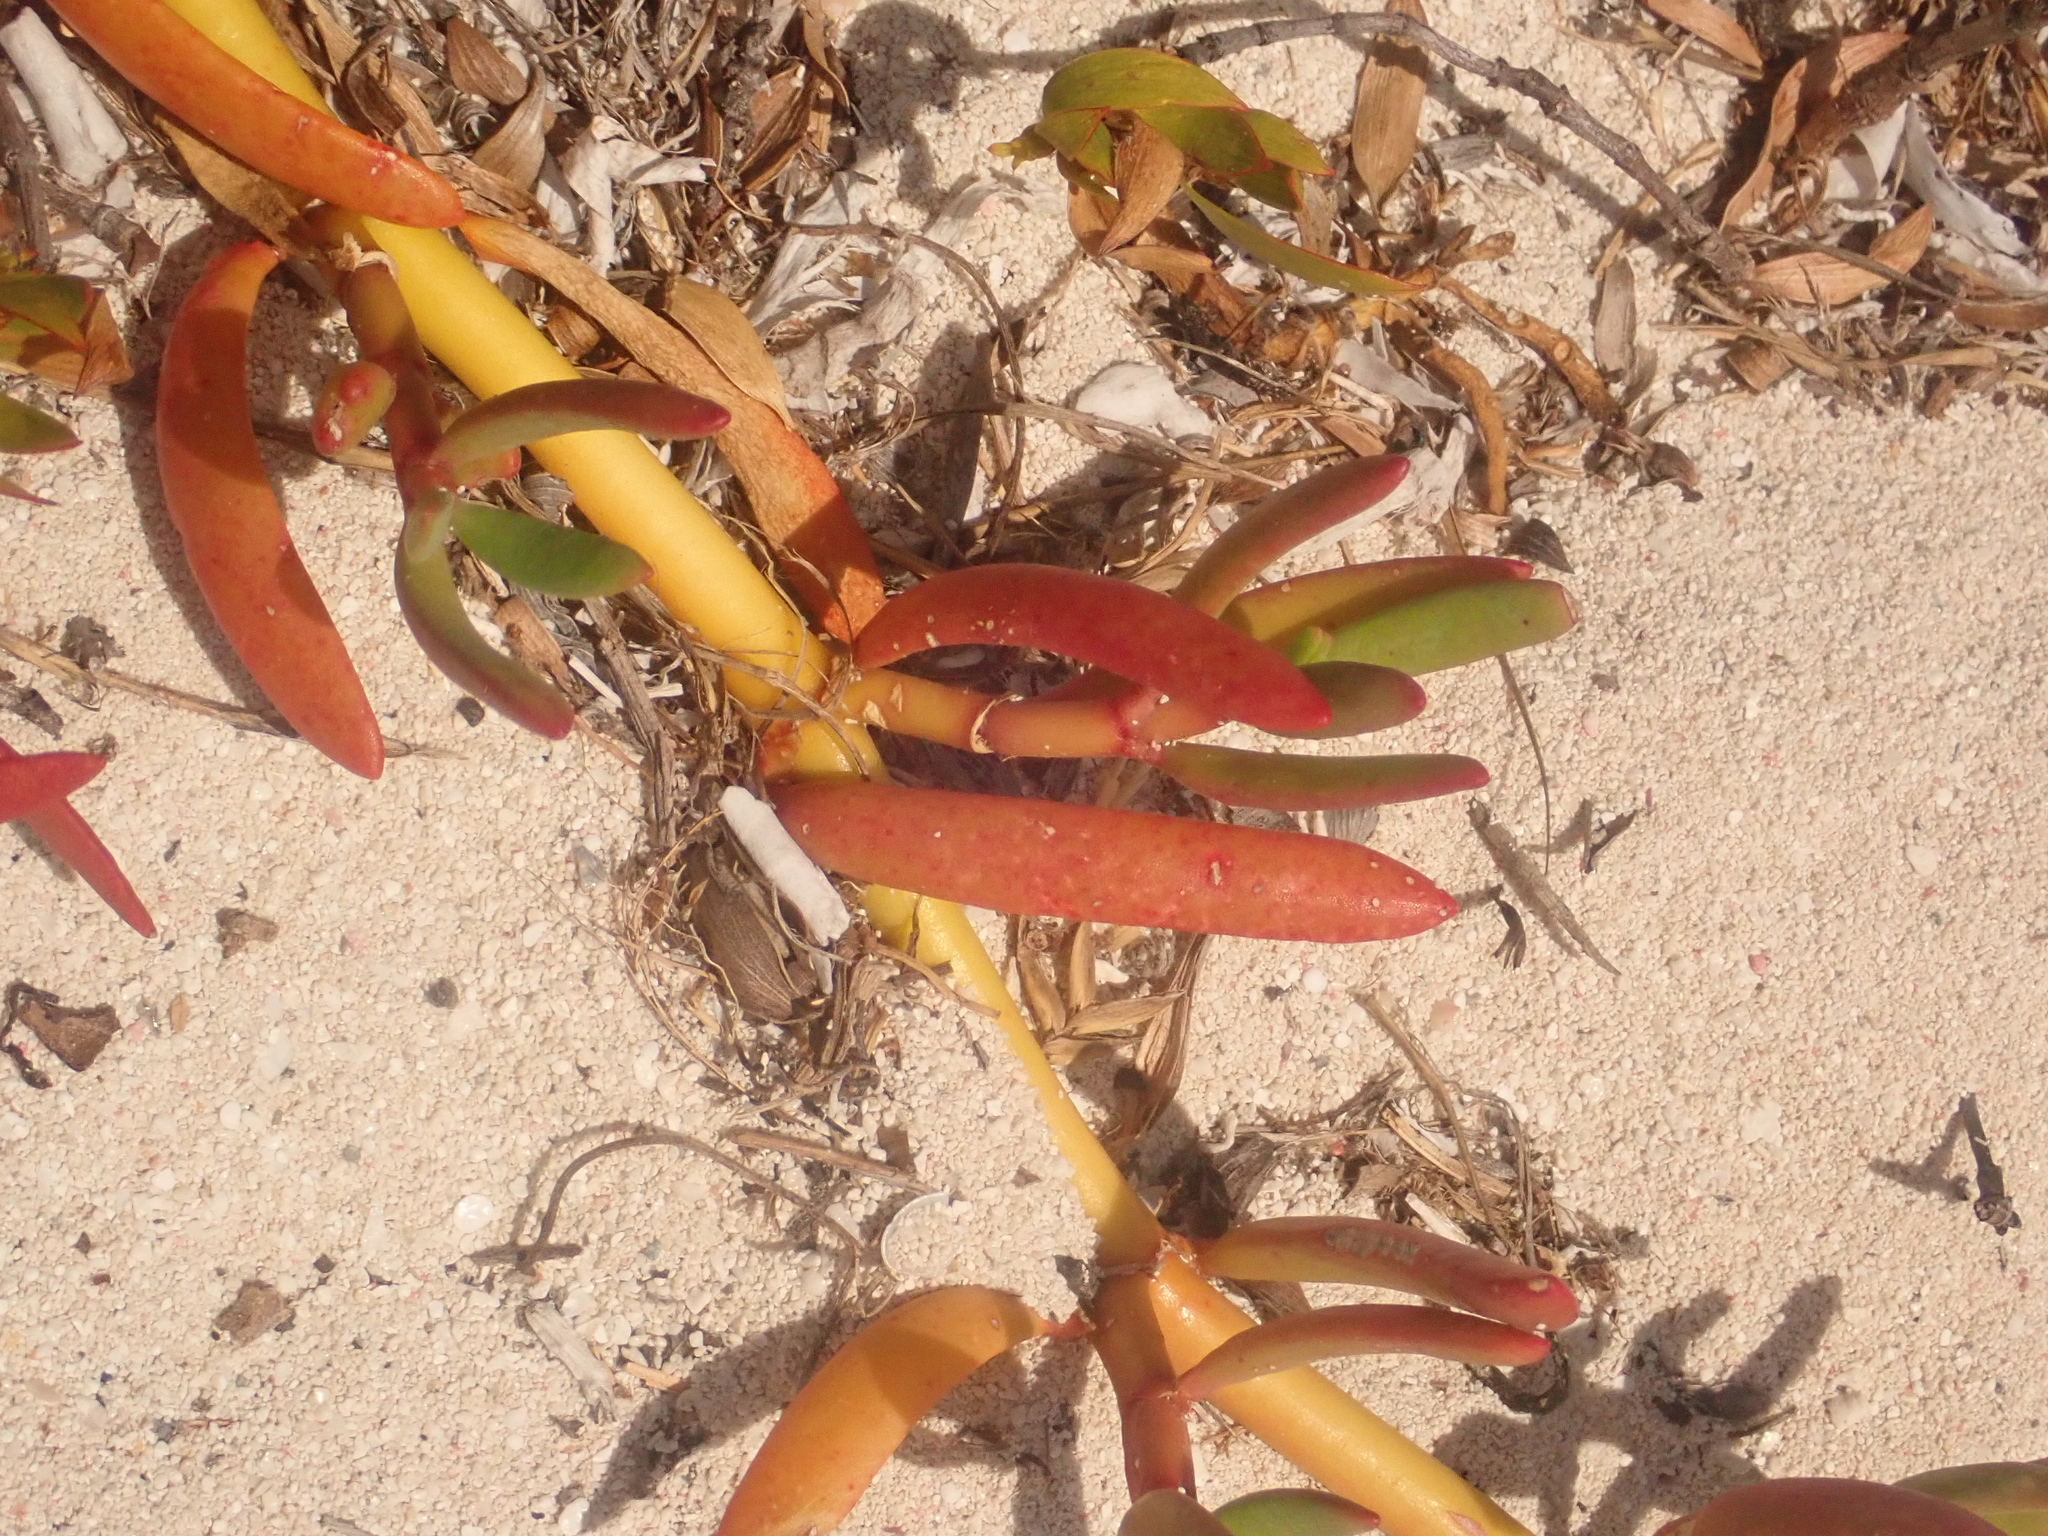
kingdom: Plantae
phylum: Tracheophyta
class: Magnoliopsida
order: Caryophyllales
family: Aizoaceae
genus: Sesuvium
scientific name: Sesuvium portulacastrum
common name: Sea-purslane
